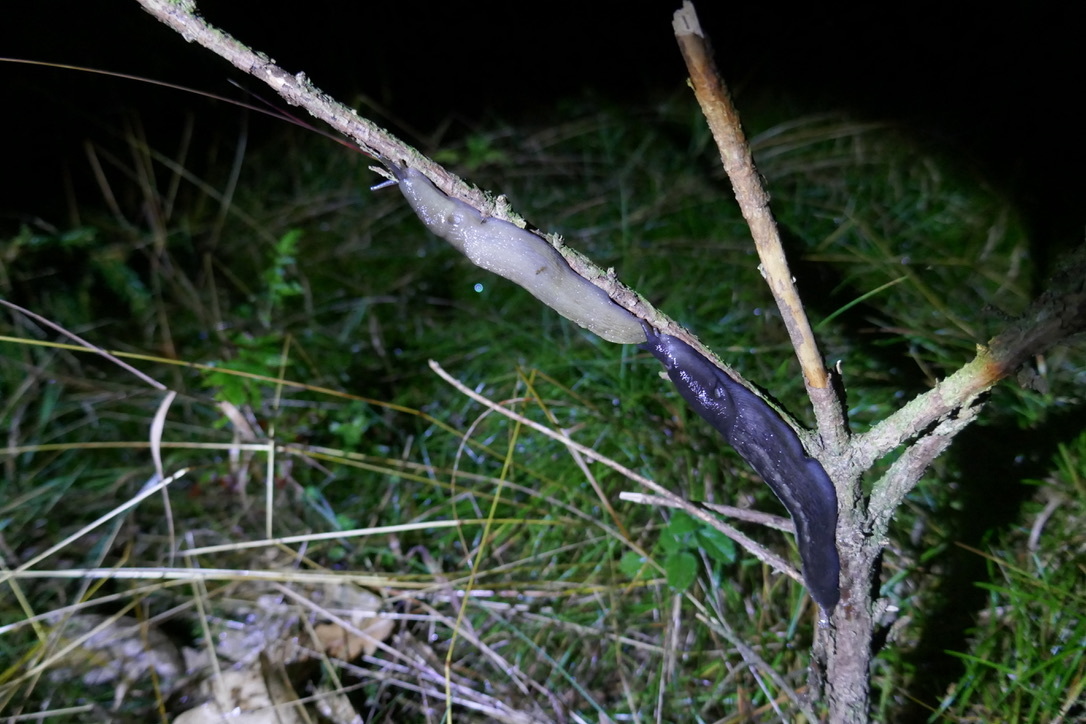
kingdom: Animalia
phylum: Mollusca
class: Gastropoda
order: Stylommatophora
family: Limacidae
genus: Limax
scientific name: Limax cinereoniger
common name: Ash-black slug
